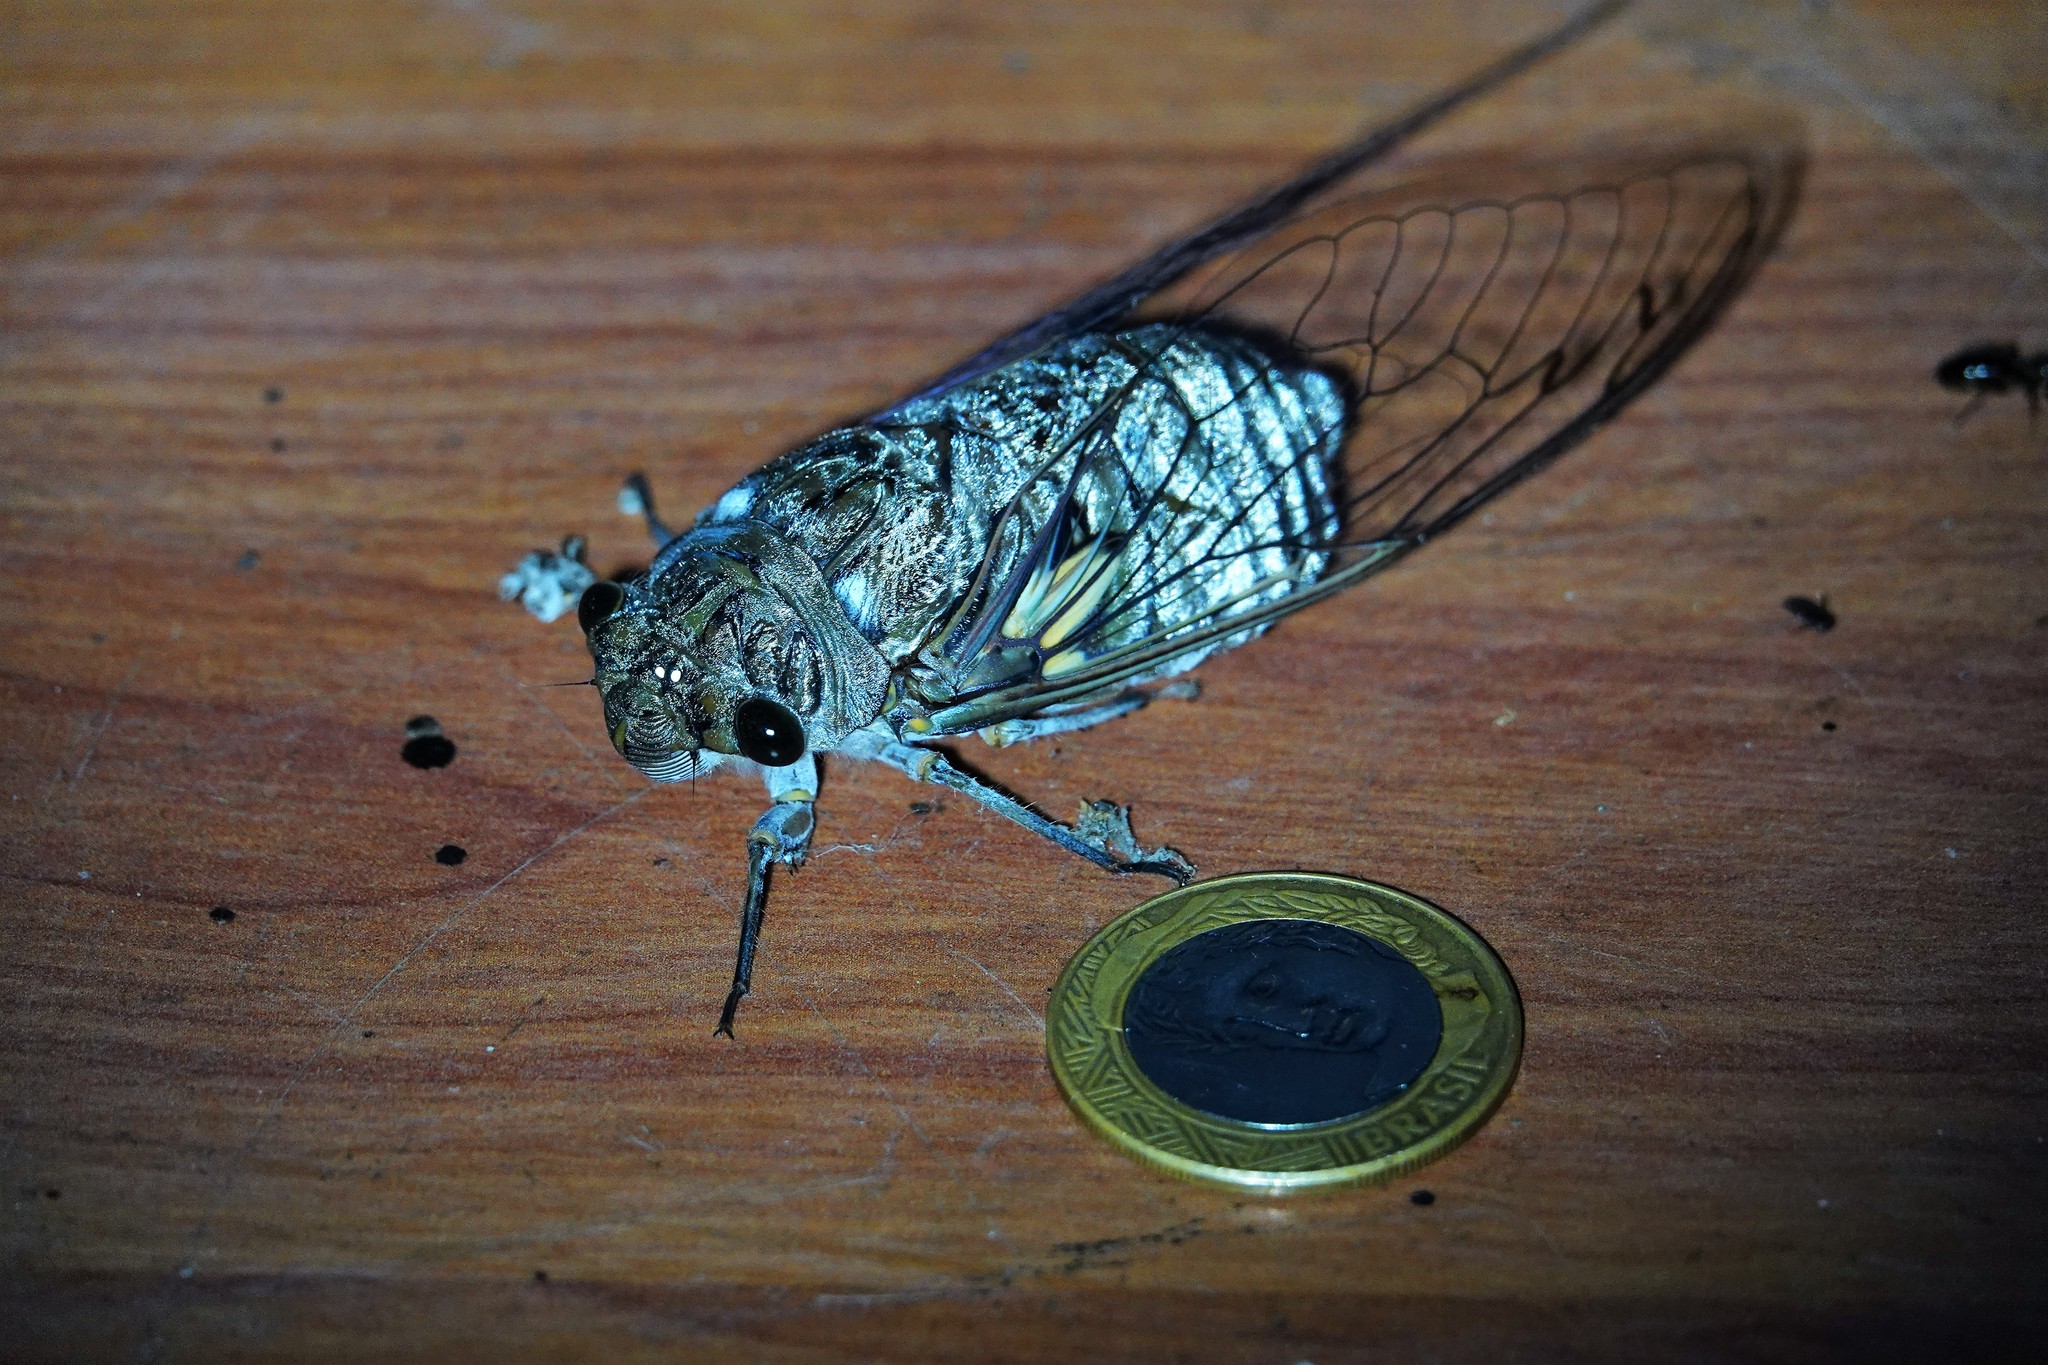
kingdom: Animalia
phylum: Arthropoda
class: Insecta
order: Hemiptera
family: Cicadidae
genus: Quesada
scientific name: Quesada gigas
